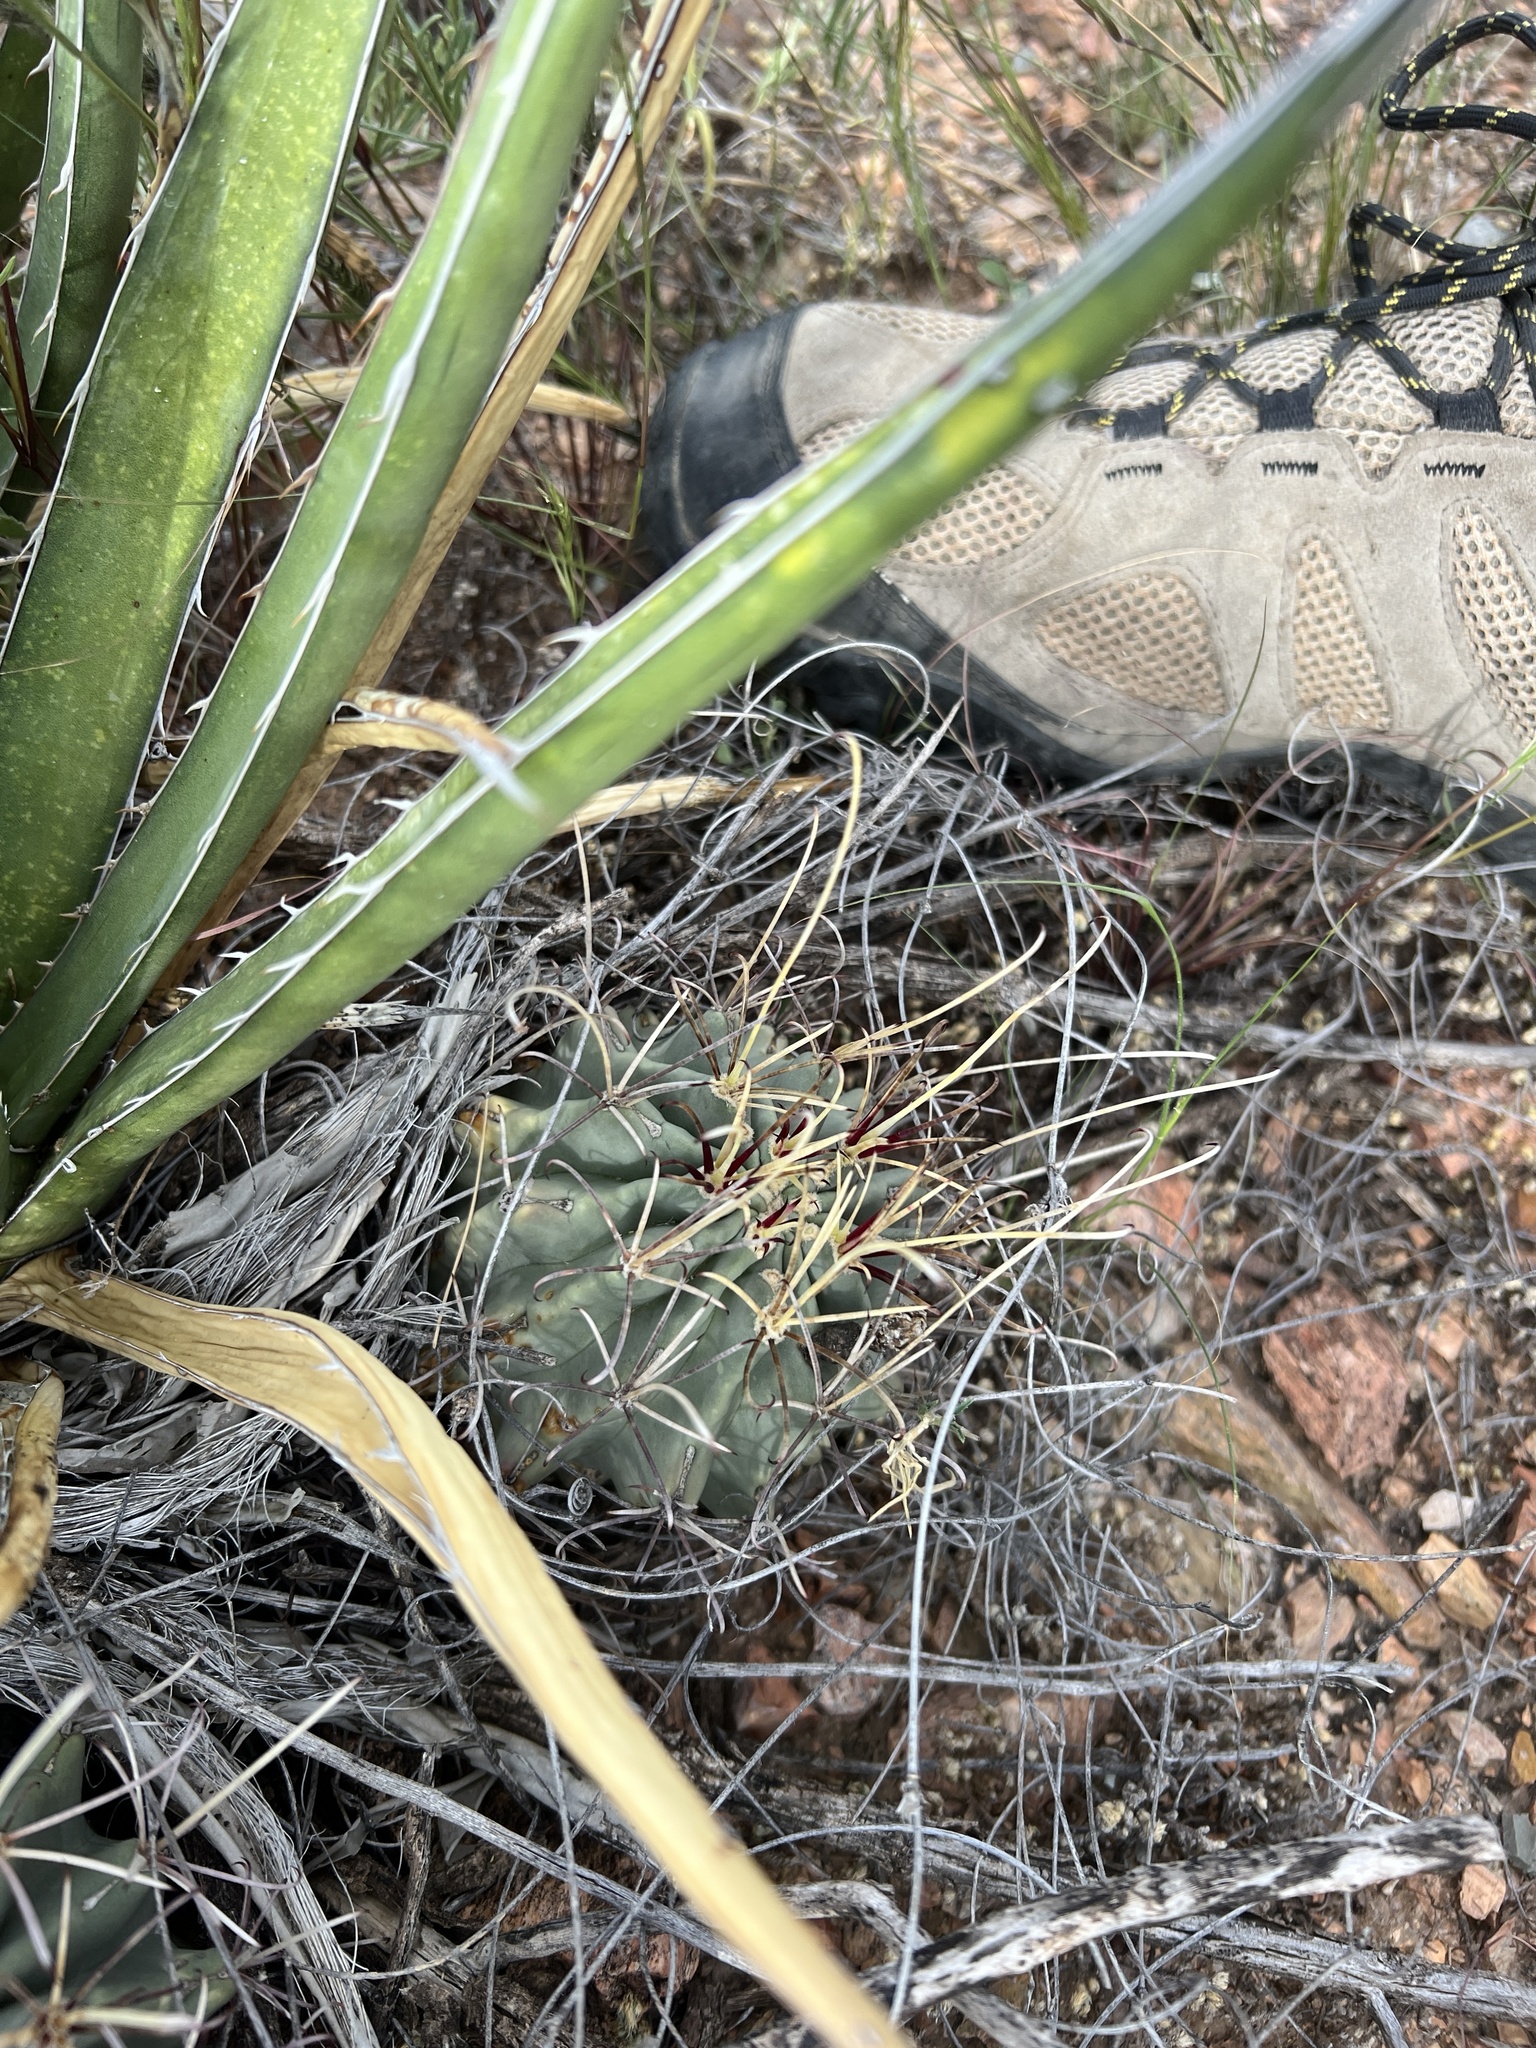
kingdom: Plantae
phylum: Tracheophyta
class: Magnoliopsida
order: Caryophyllales
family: Cactaceae
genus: Ferocactus
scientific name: Ferocactus uncinatus
